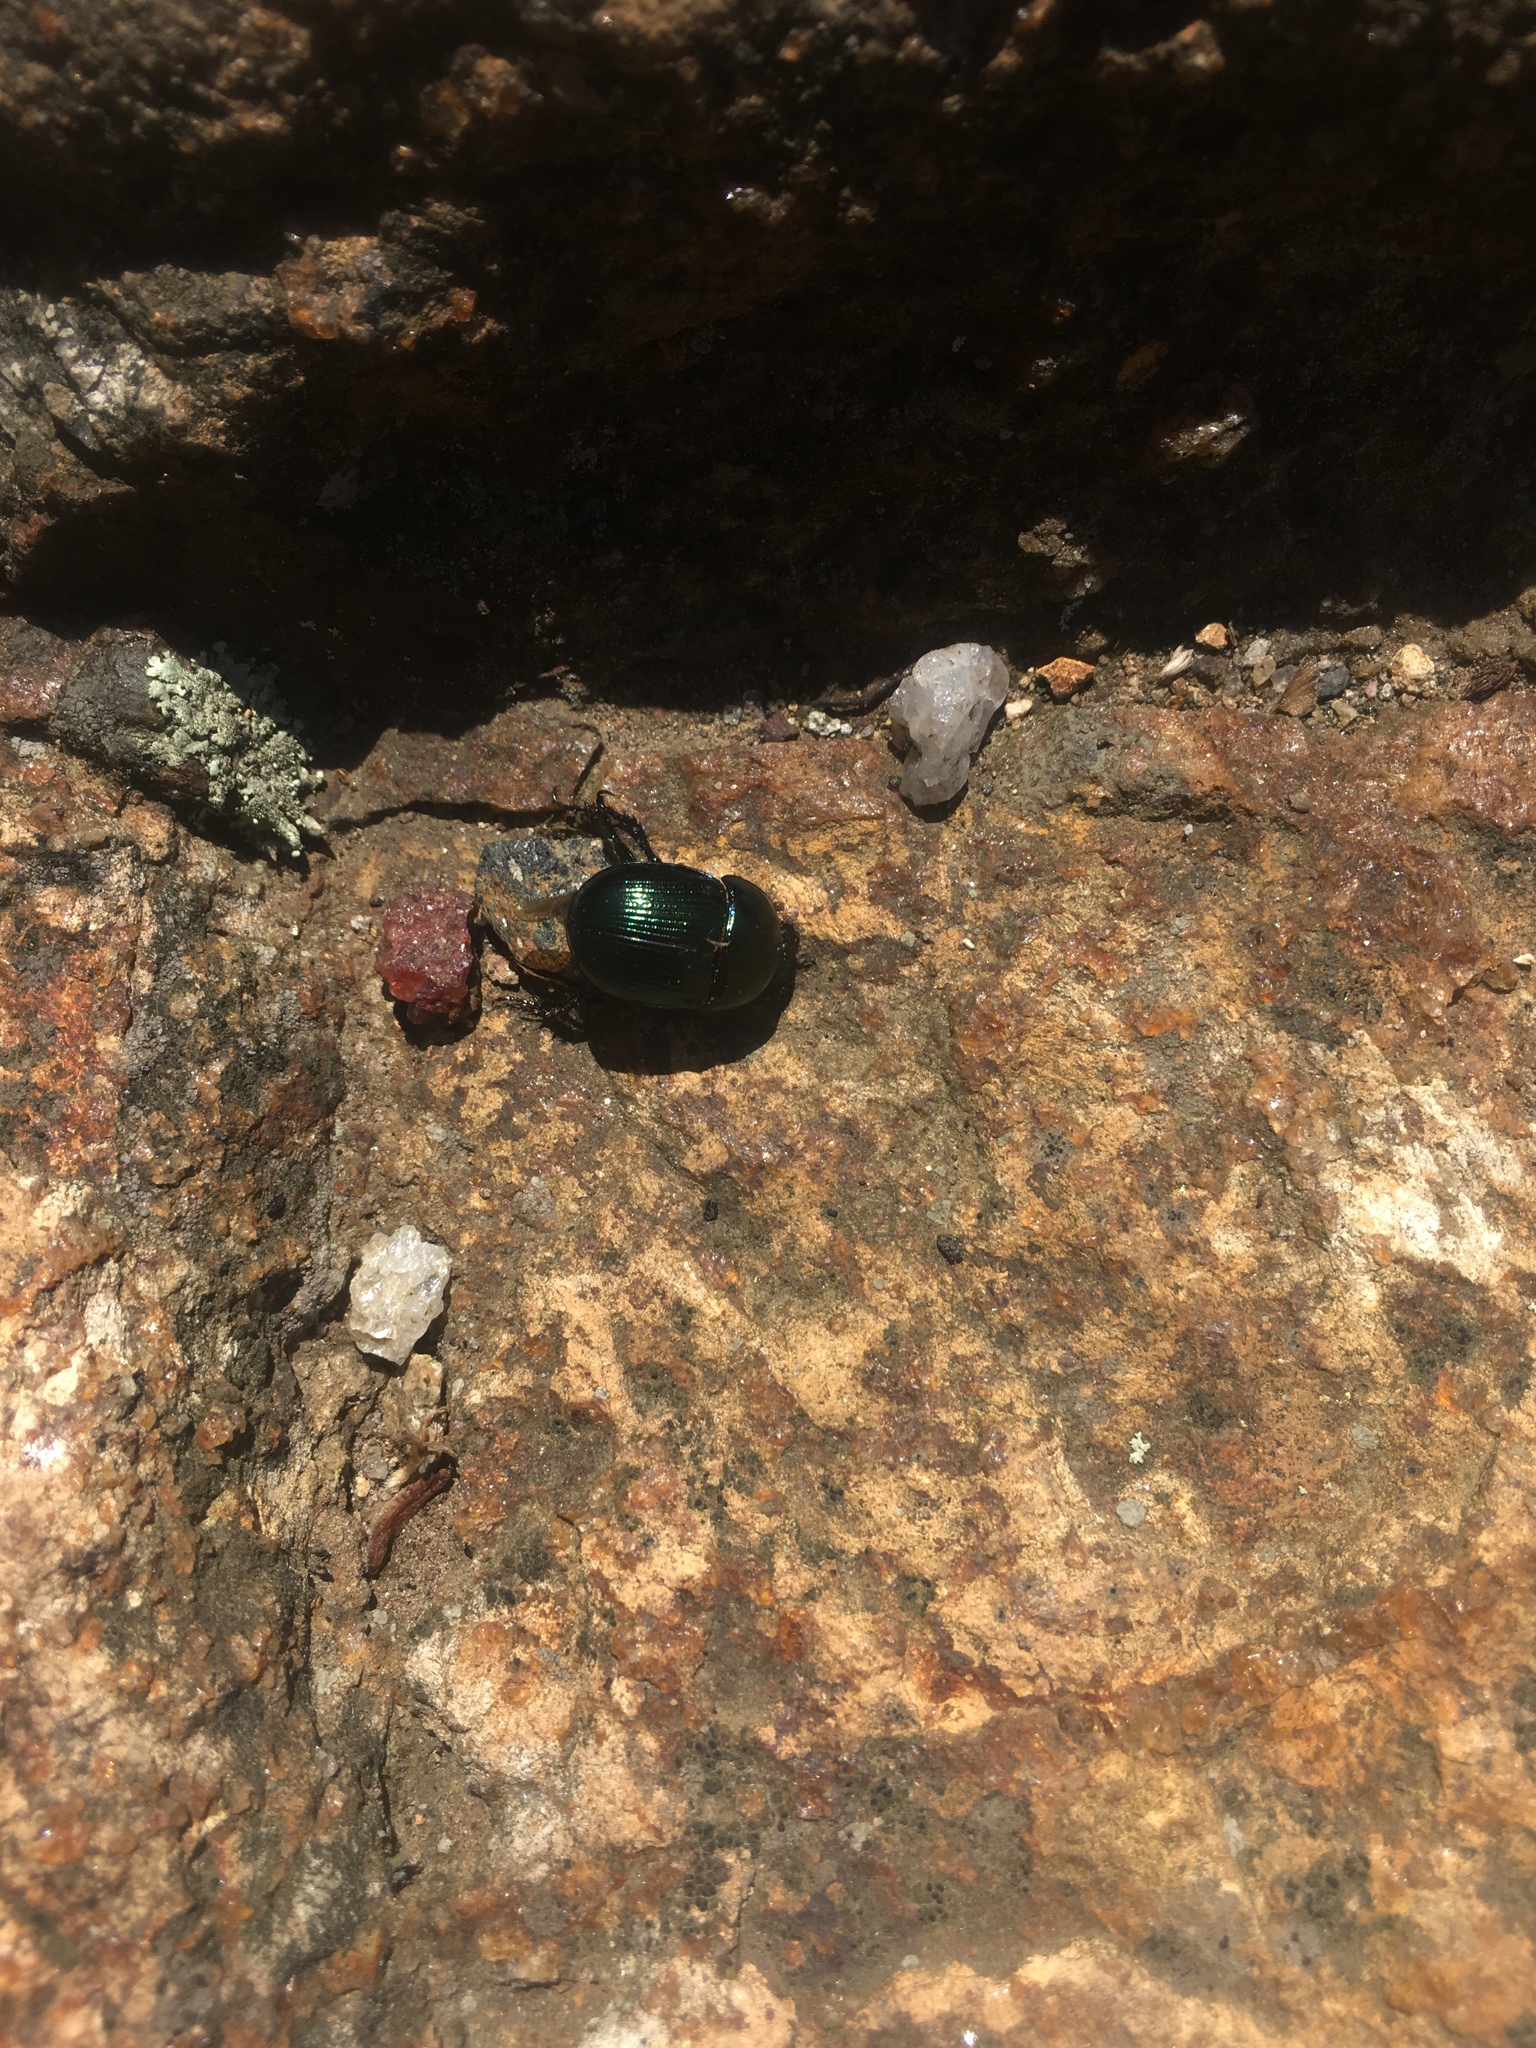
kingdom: Animalia
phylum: Arthropoda
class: Insecta
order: Coleoptera
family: Geotrupidae
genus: Geotrupes
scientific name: Geotrupes splendidus
